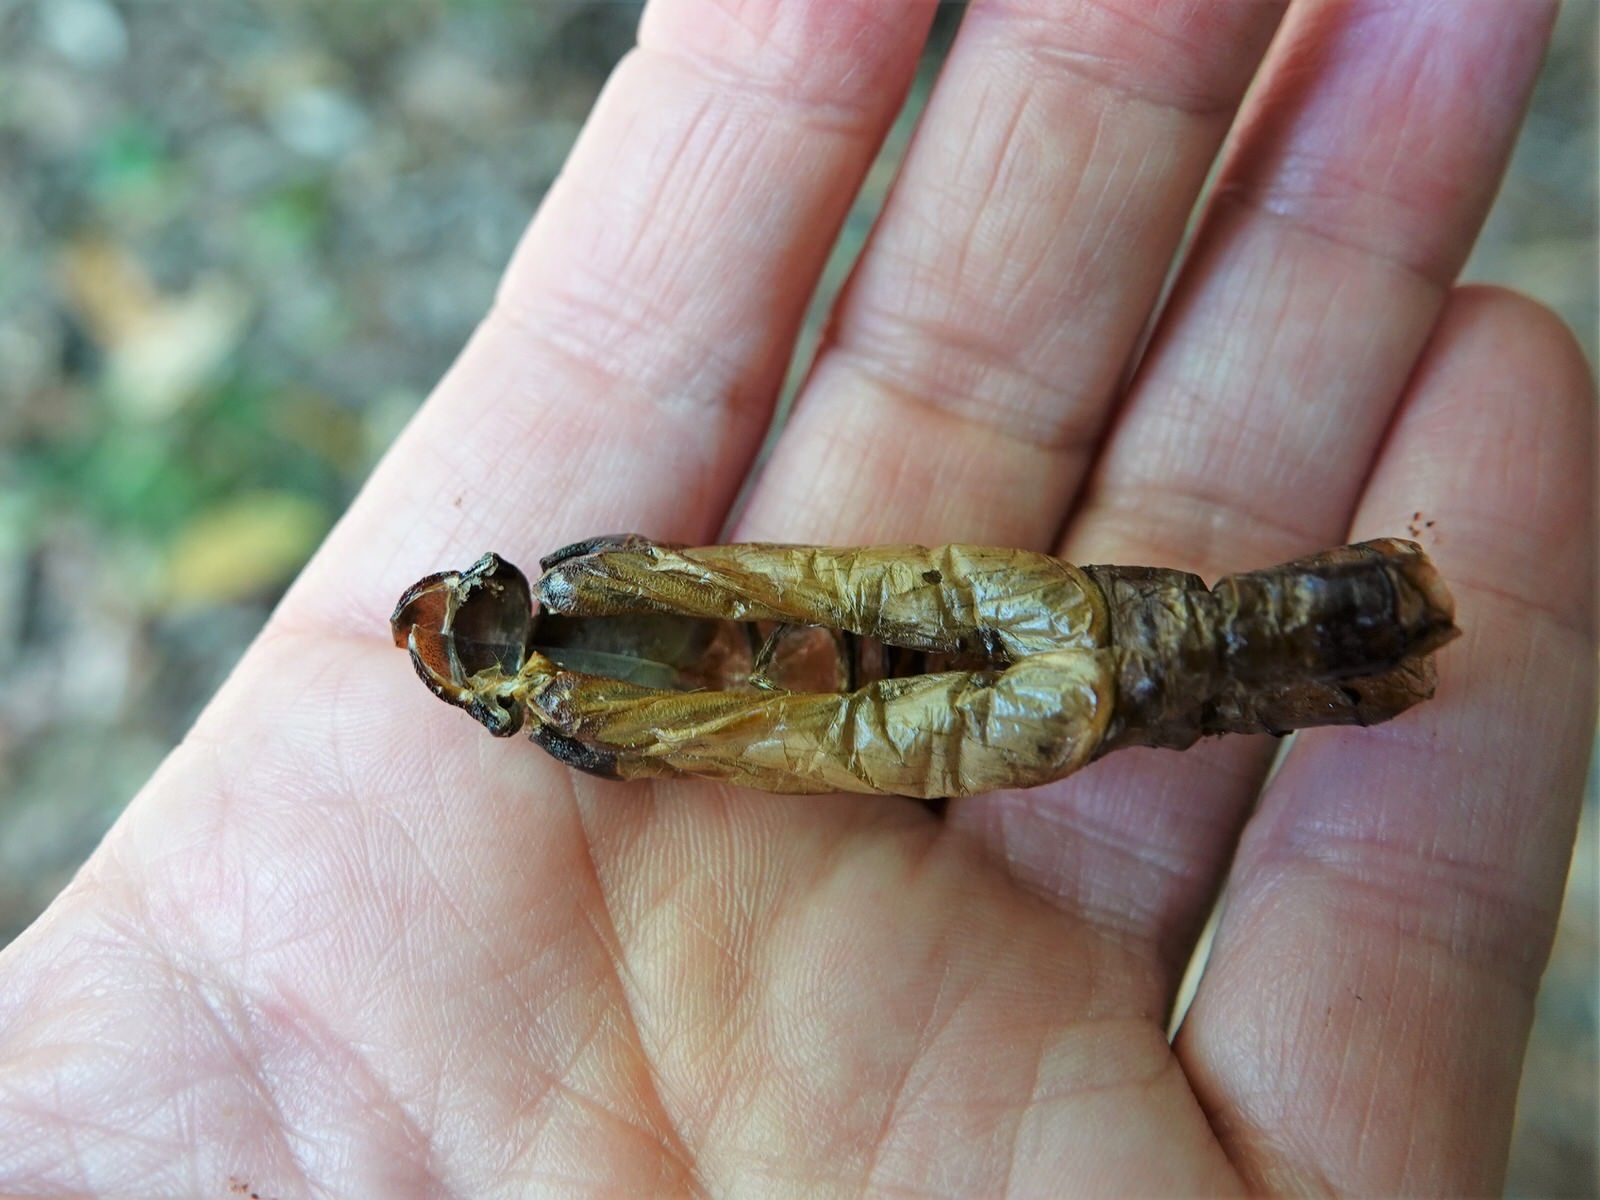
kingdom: Animalia
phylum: Arthropoda
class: Insecta
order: Lepidoptera
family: Hepialidae
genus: Aenetus
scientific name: Aenetus virescens
